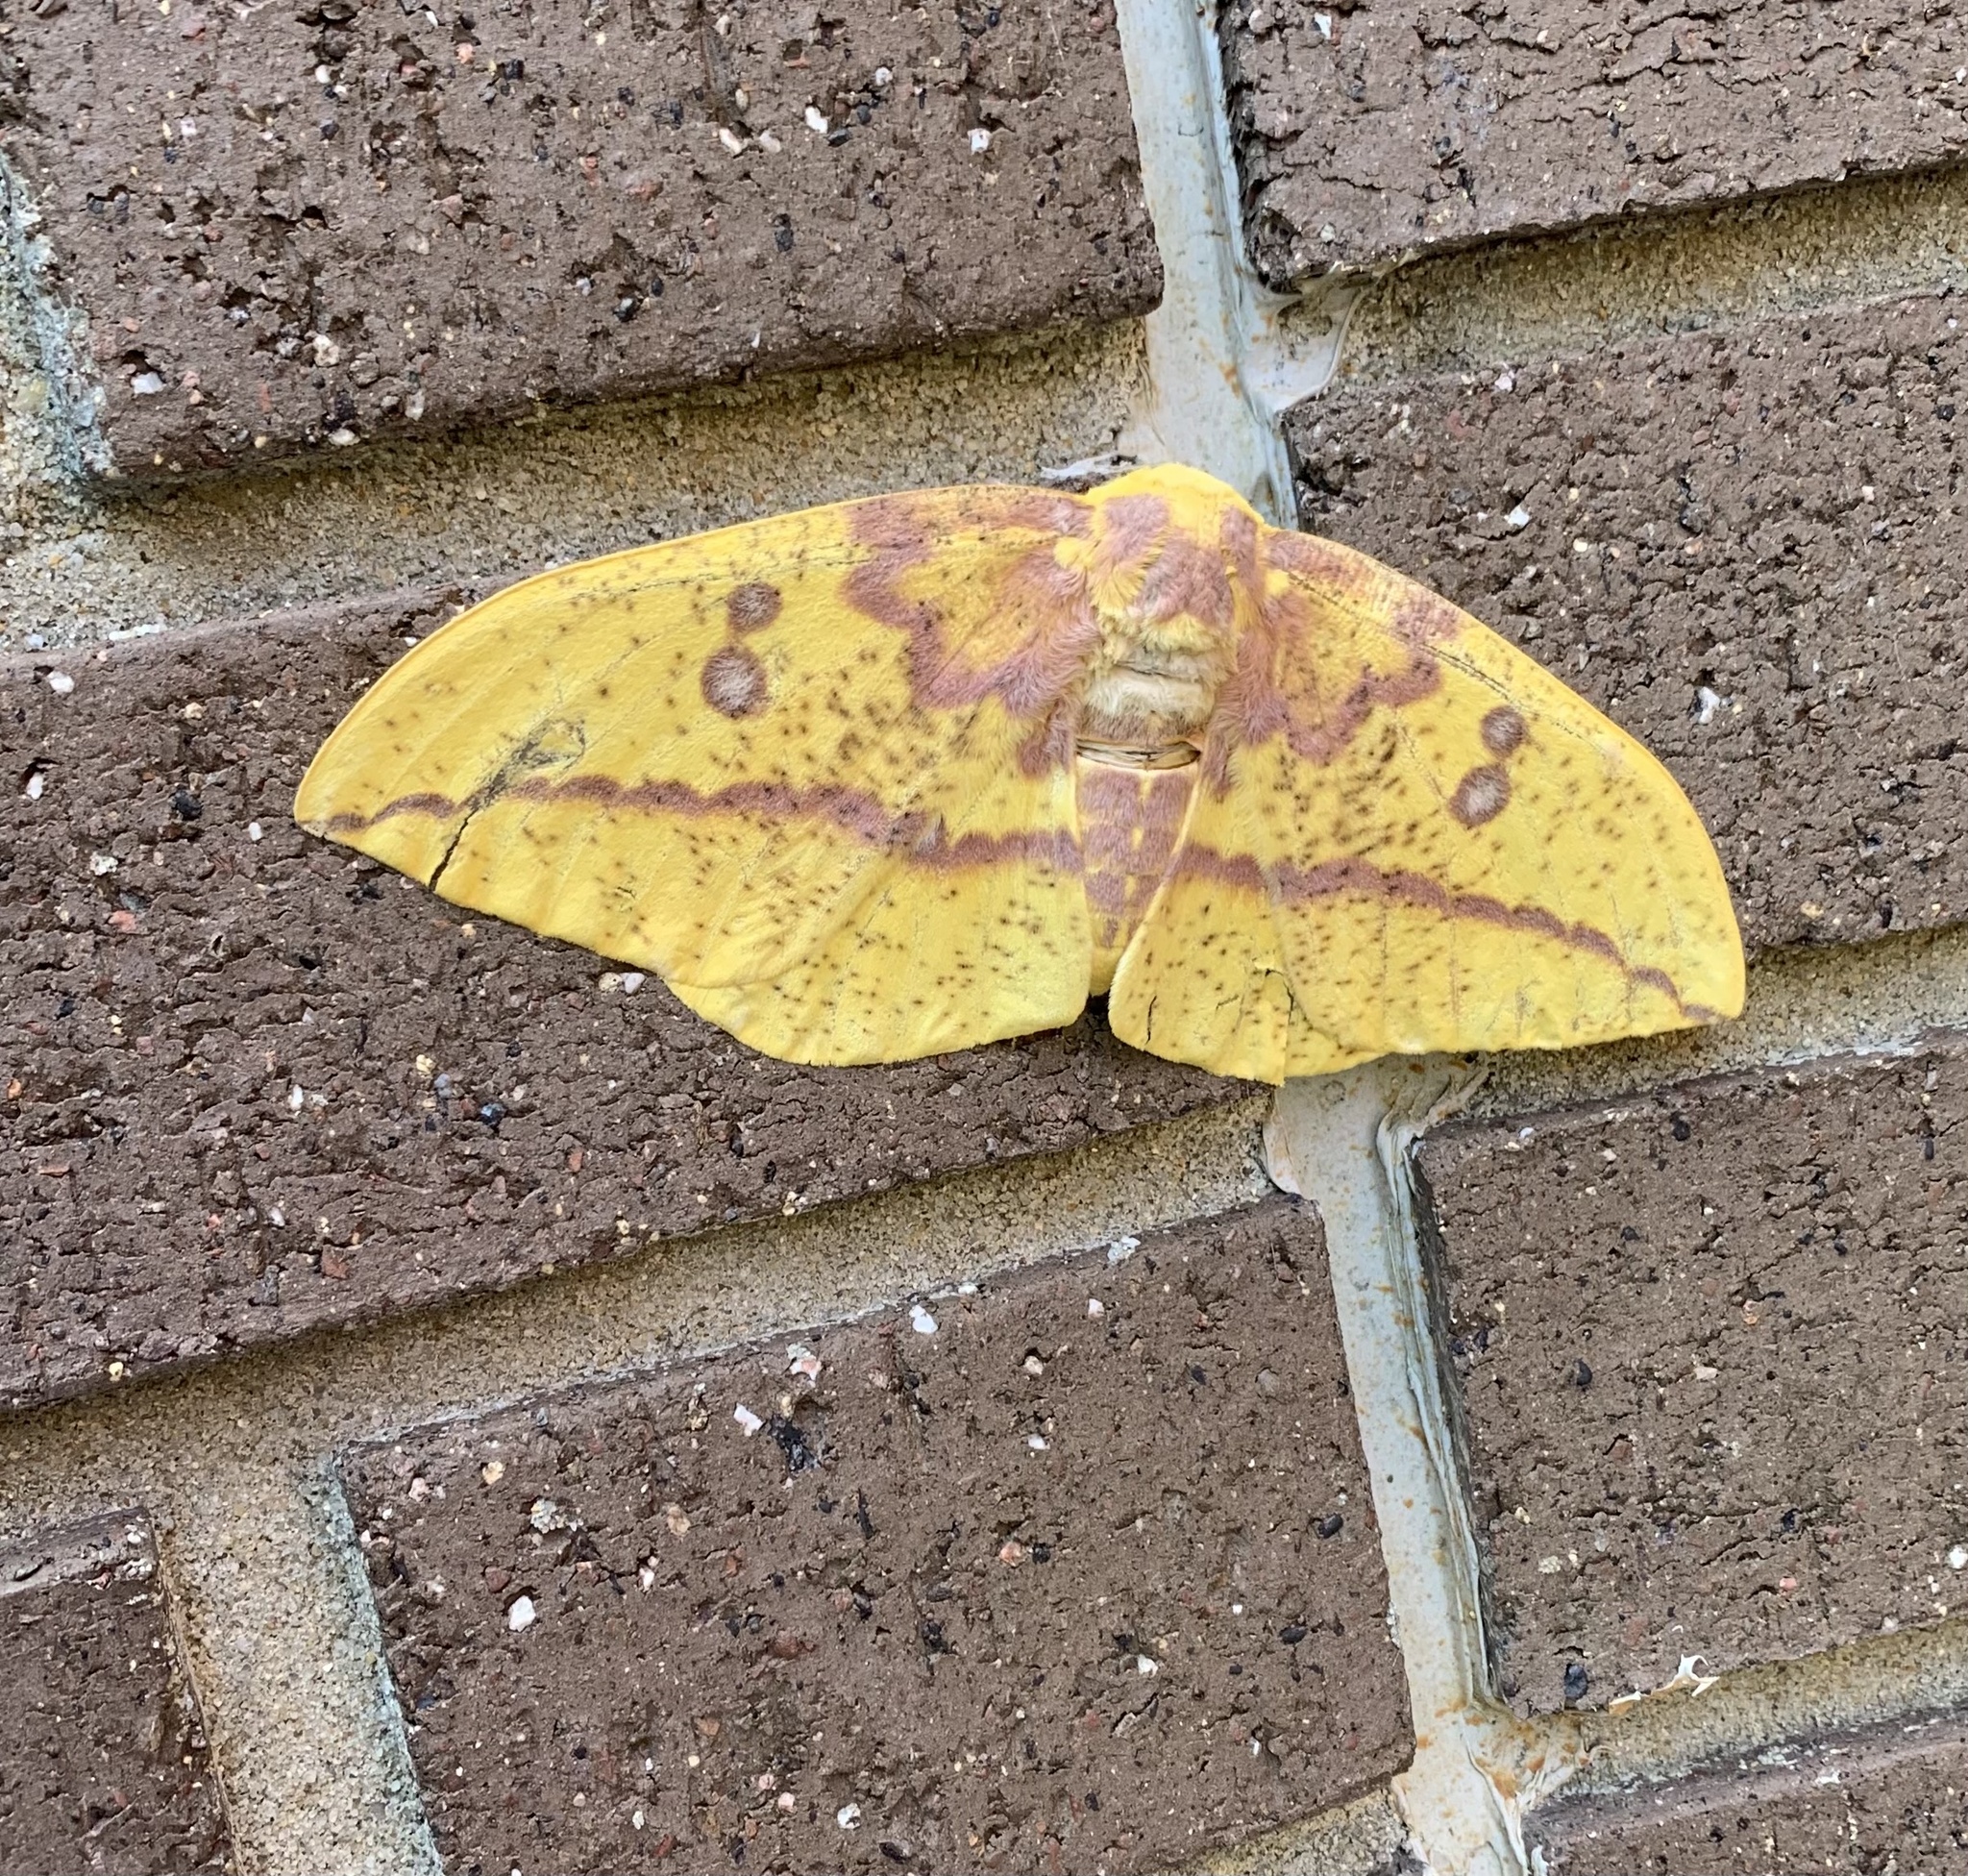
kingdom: Animalia
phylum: Arthropoda
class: Insecta
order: Lepidoptera
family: Saturniidae
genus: Eacles
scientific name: Eacles imperialis
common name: Imperial moth
